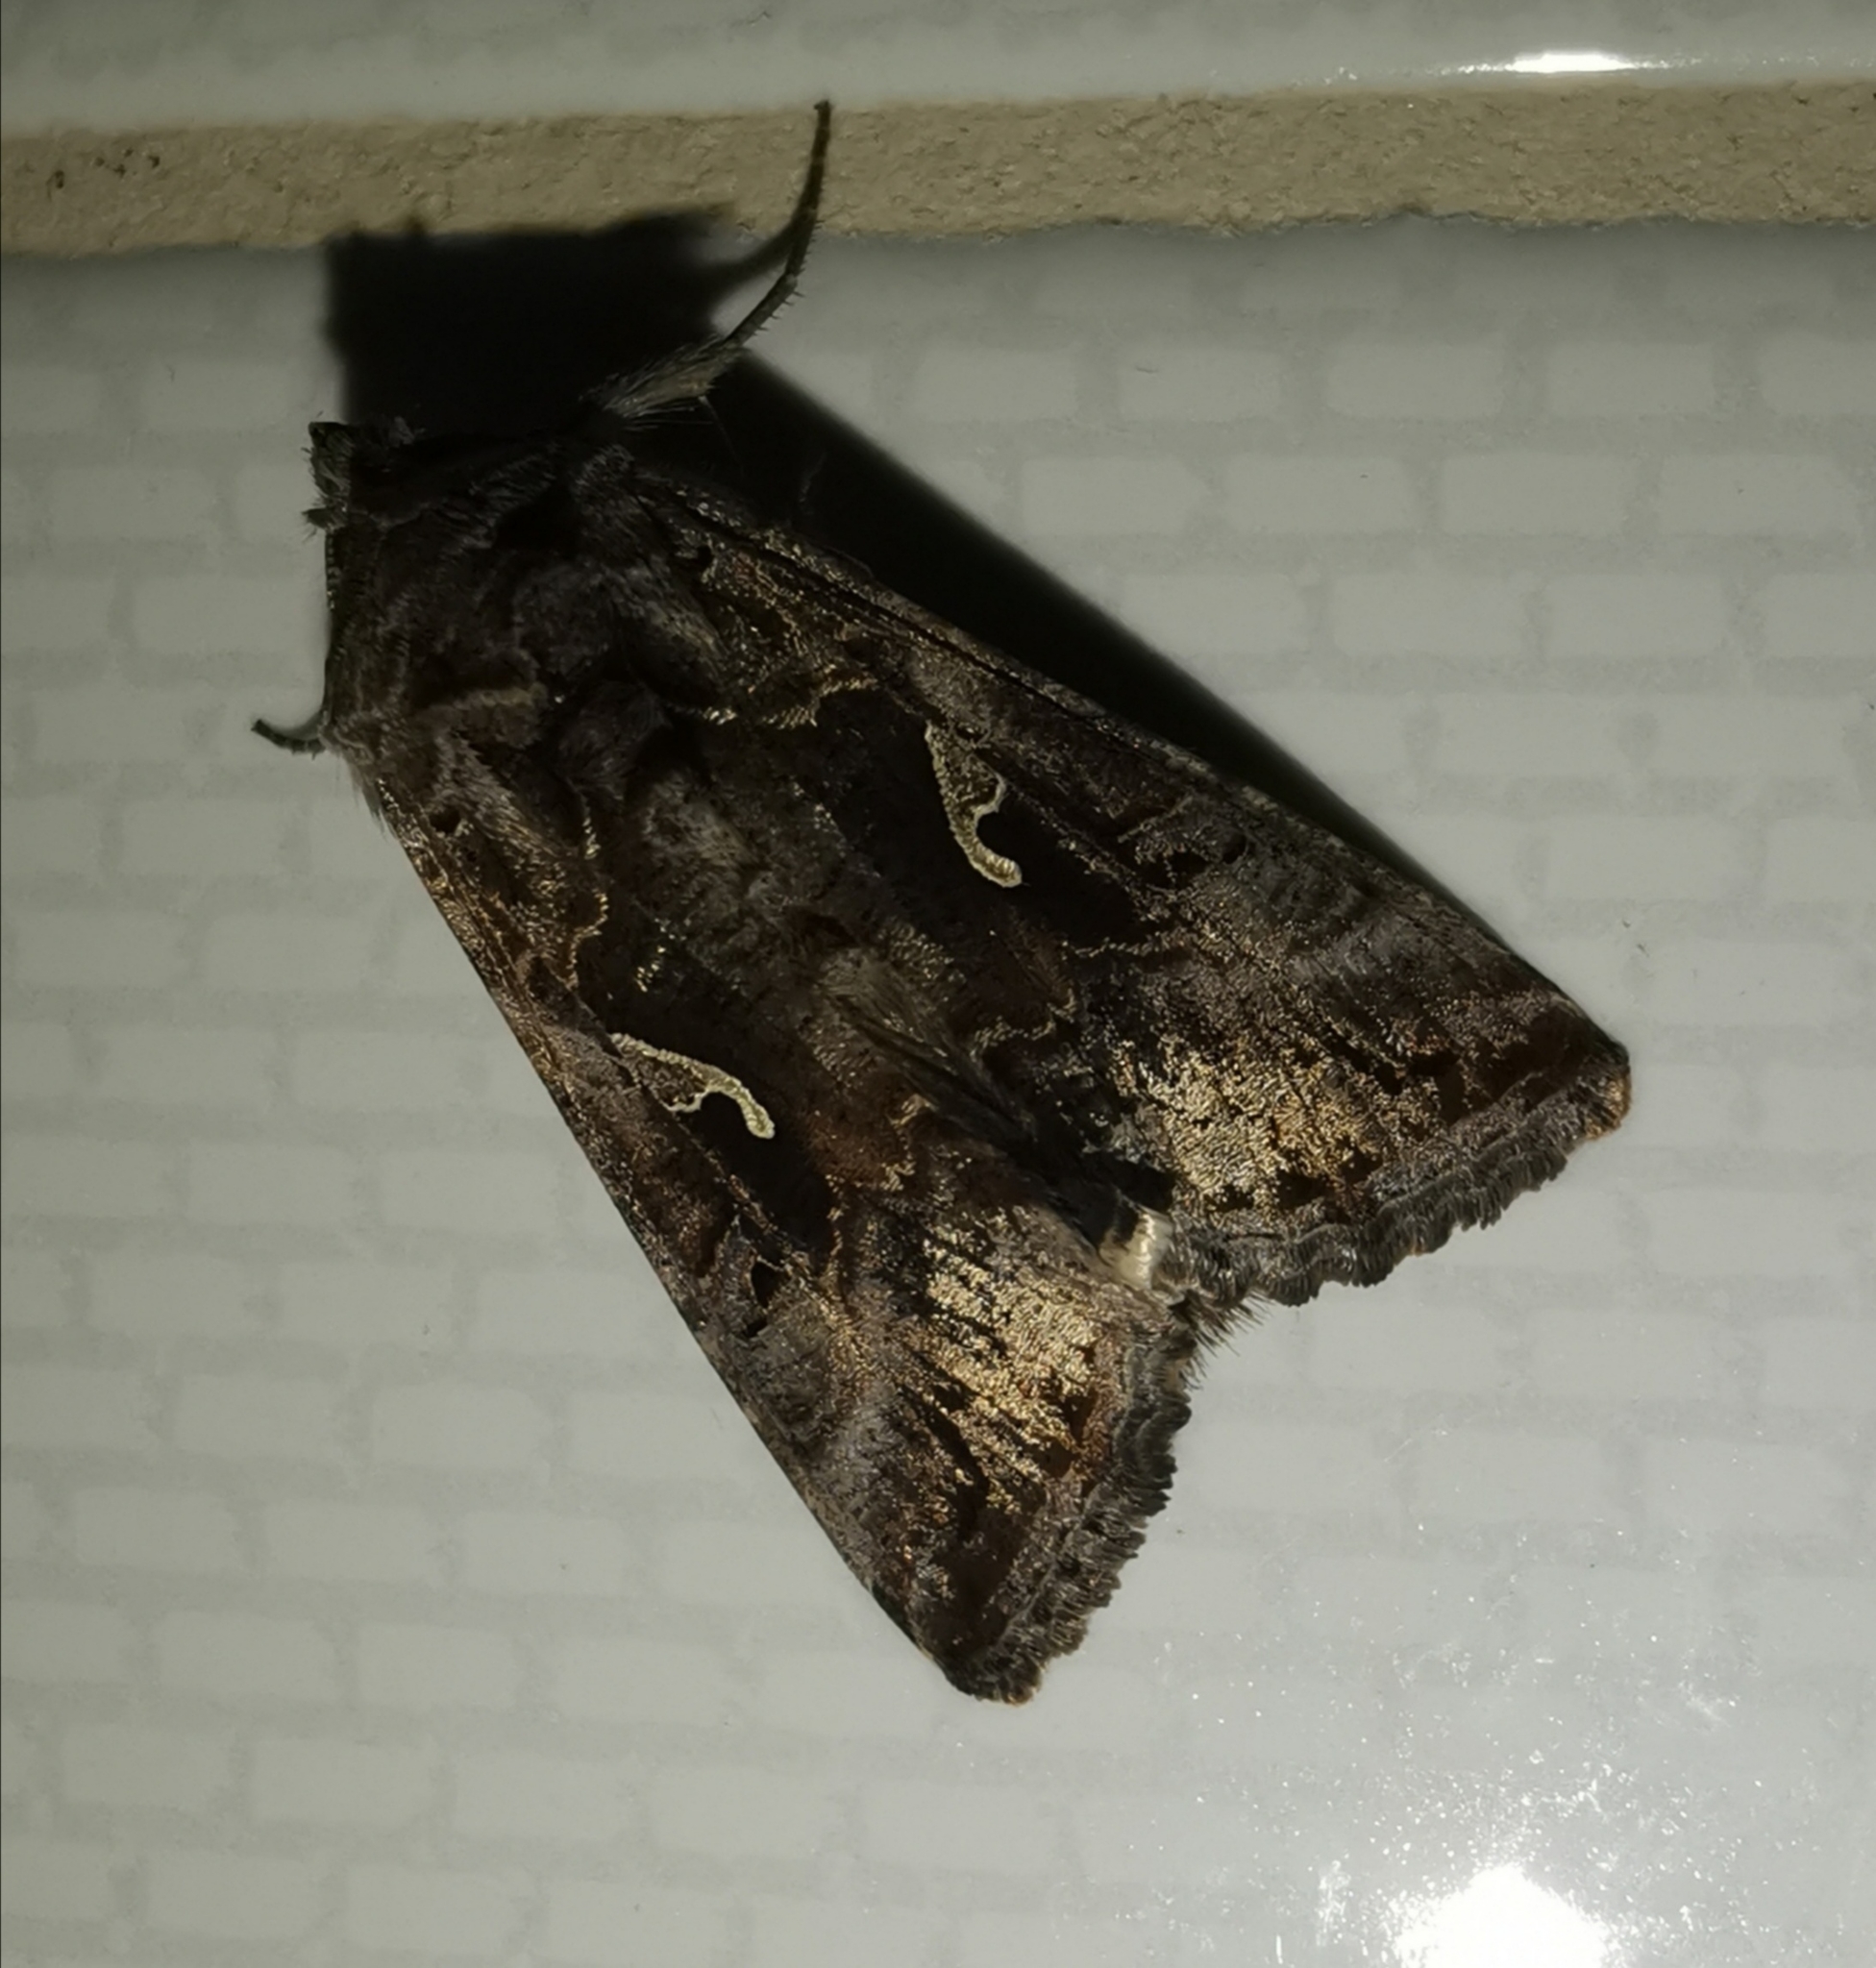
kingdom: Animalia
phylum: Arthropoda
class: Insecta
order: Lepidoptera
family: Noctuidae
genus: Autographa
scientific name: Autographa gamma
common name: Silver y
